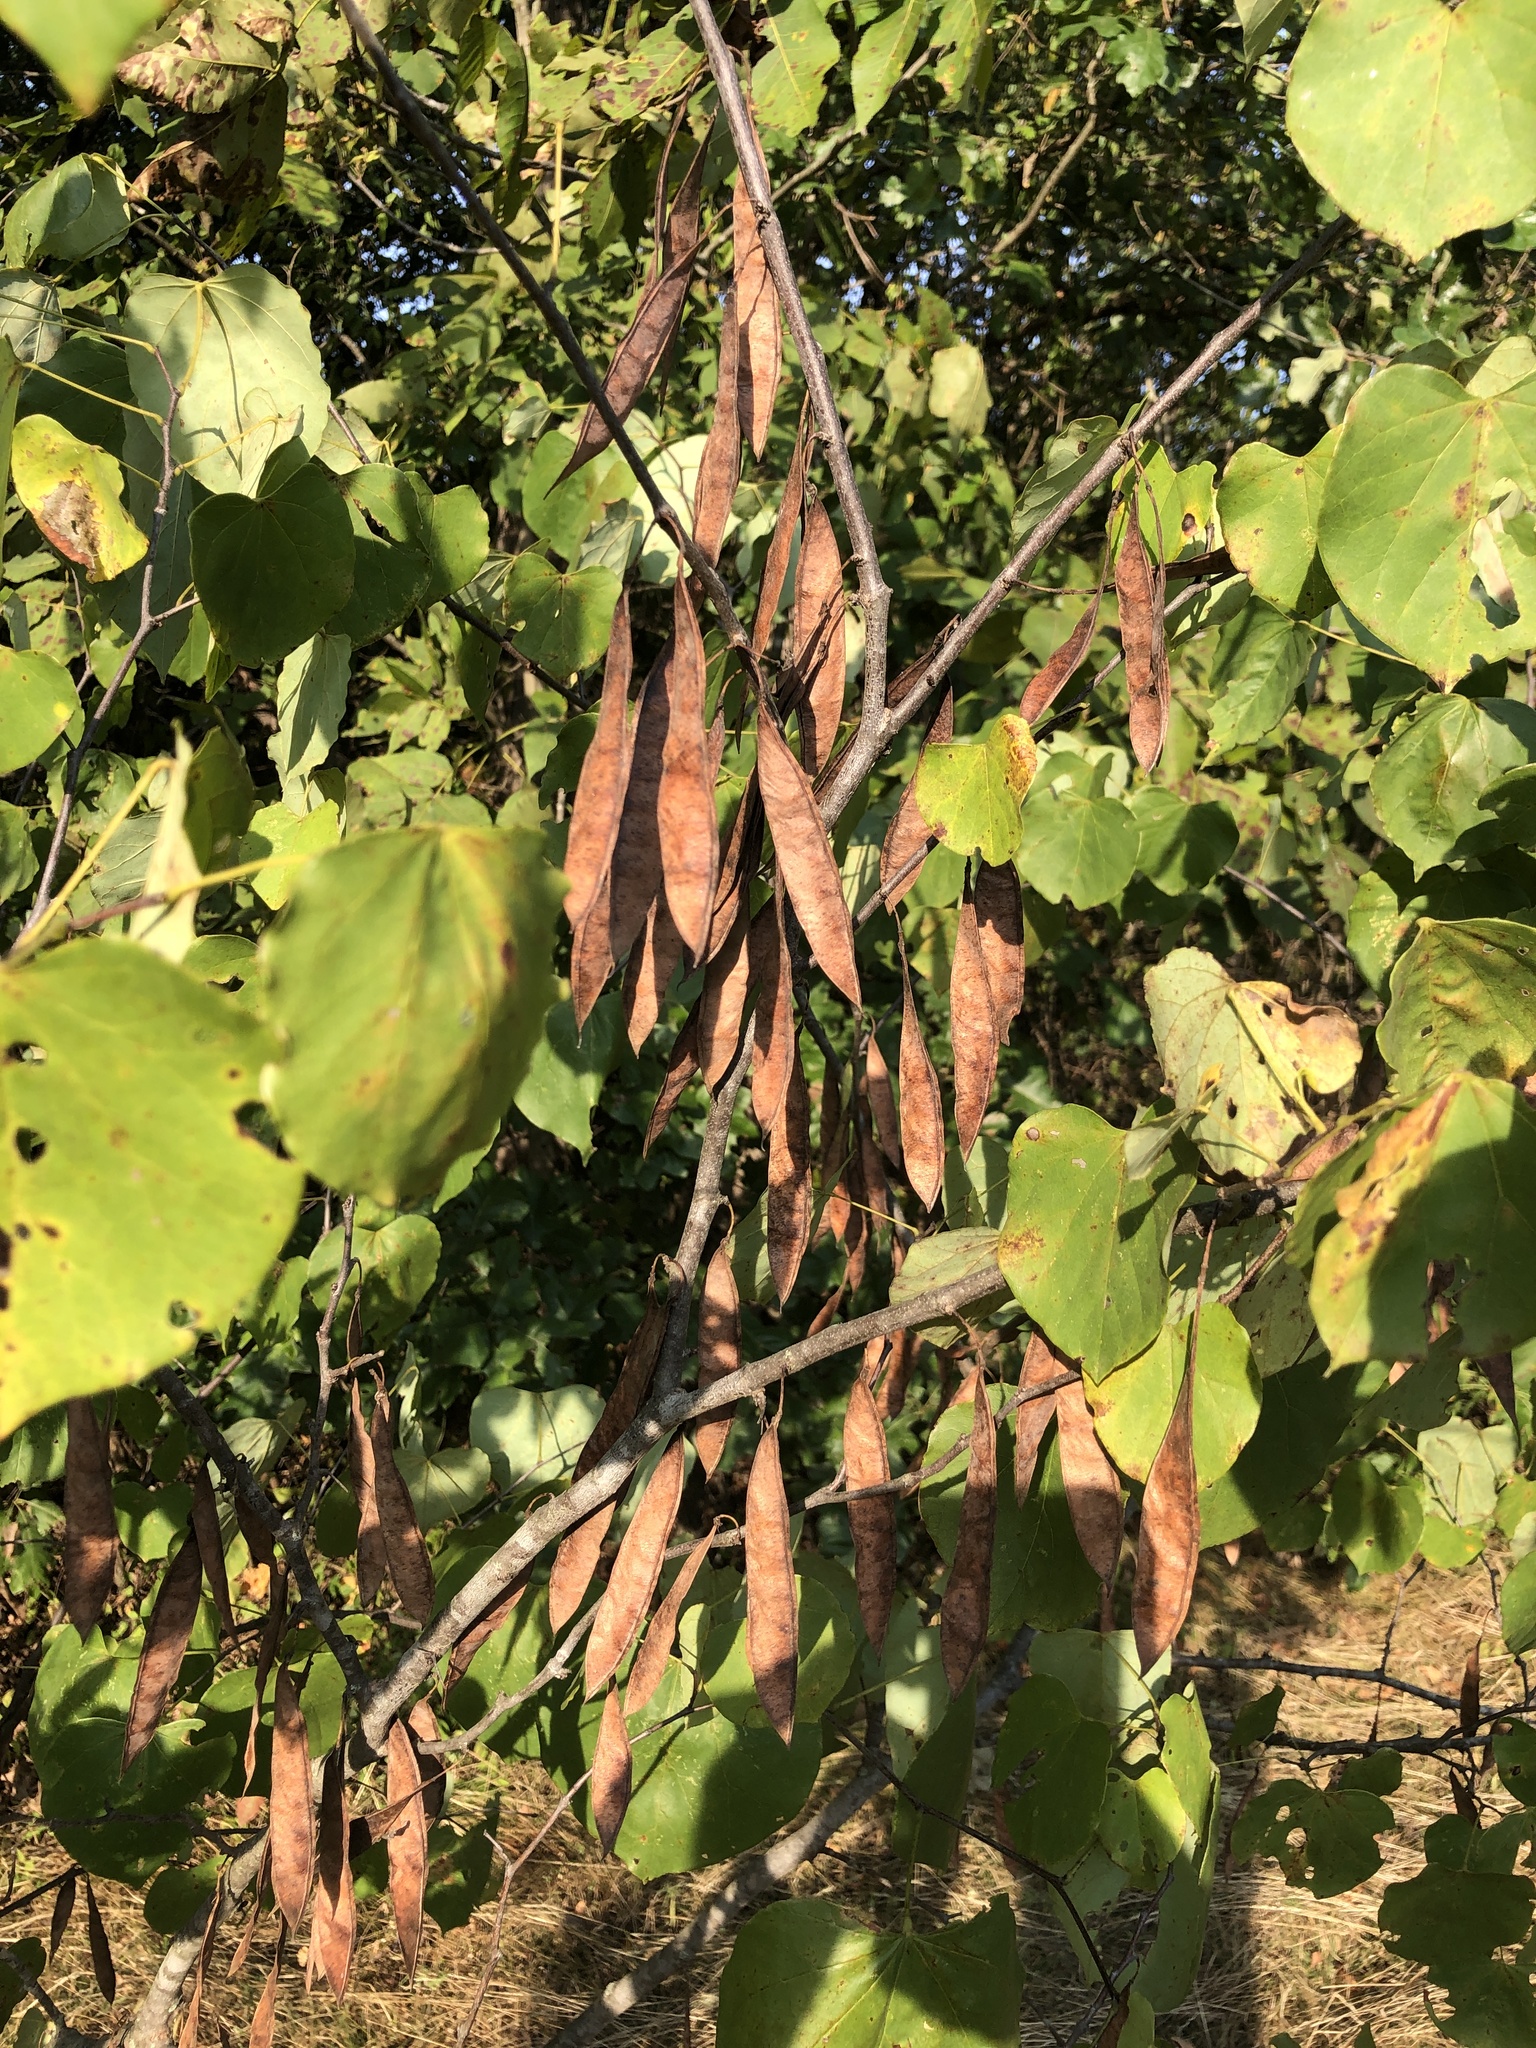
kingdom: Plantae
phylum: Tracheophyta
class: Magnoliopsida
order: Fabales
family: Fabaceae
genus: Cercis
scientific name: Cercis canadensis
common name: Eastern redbud
